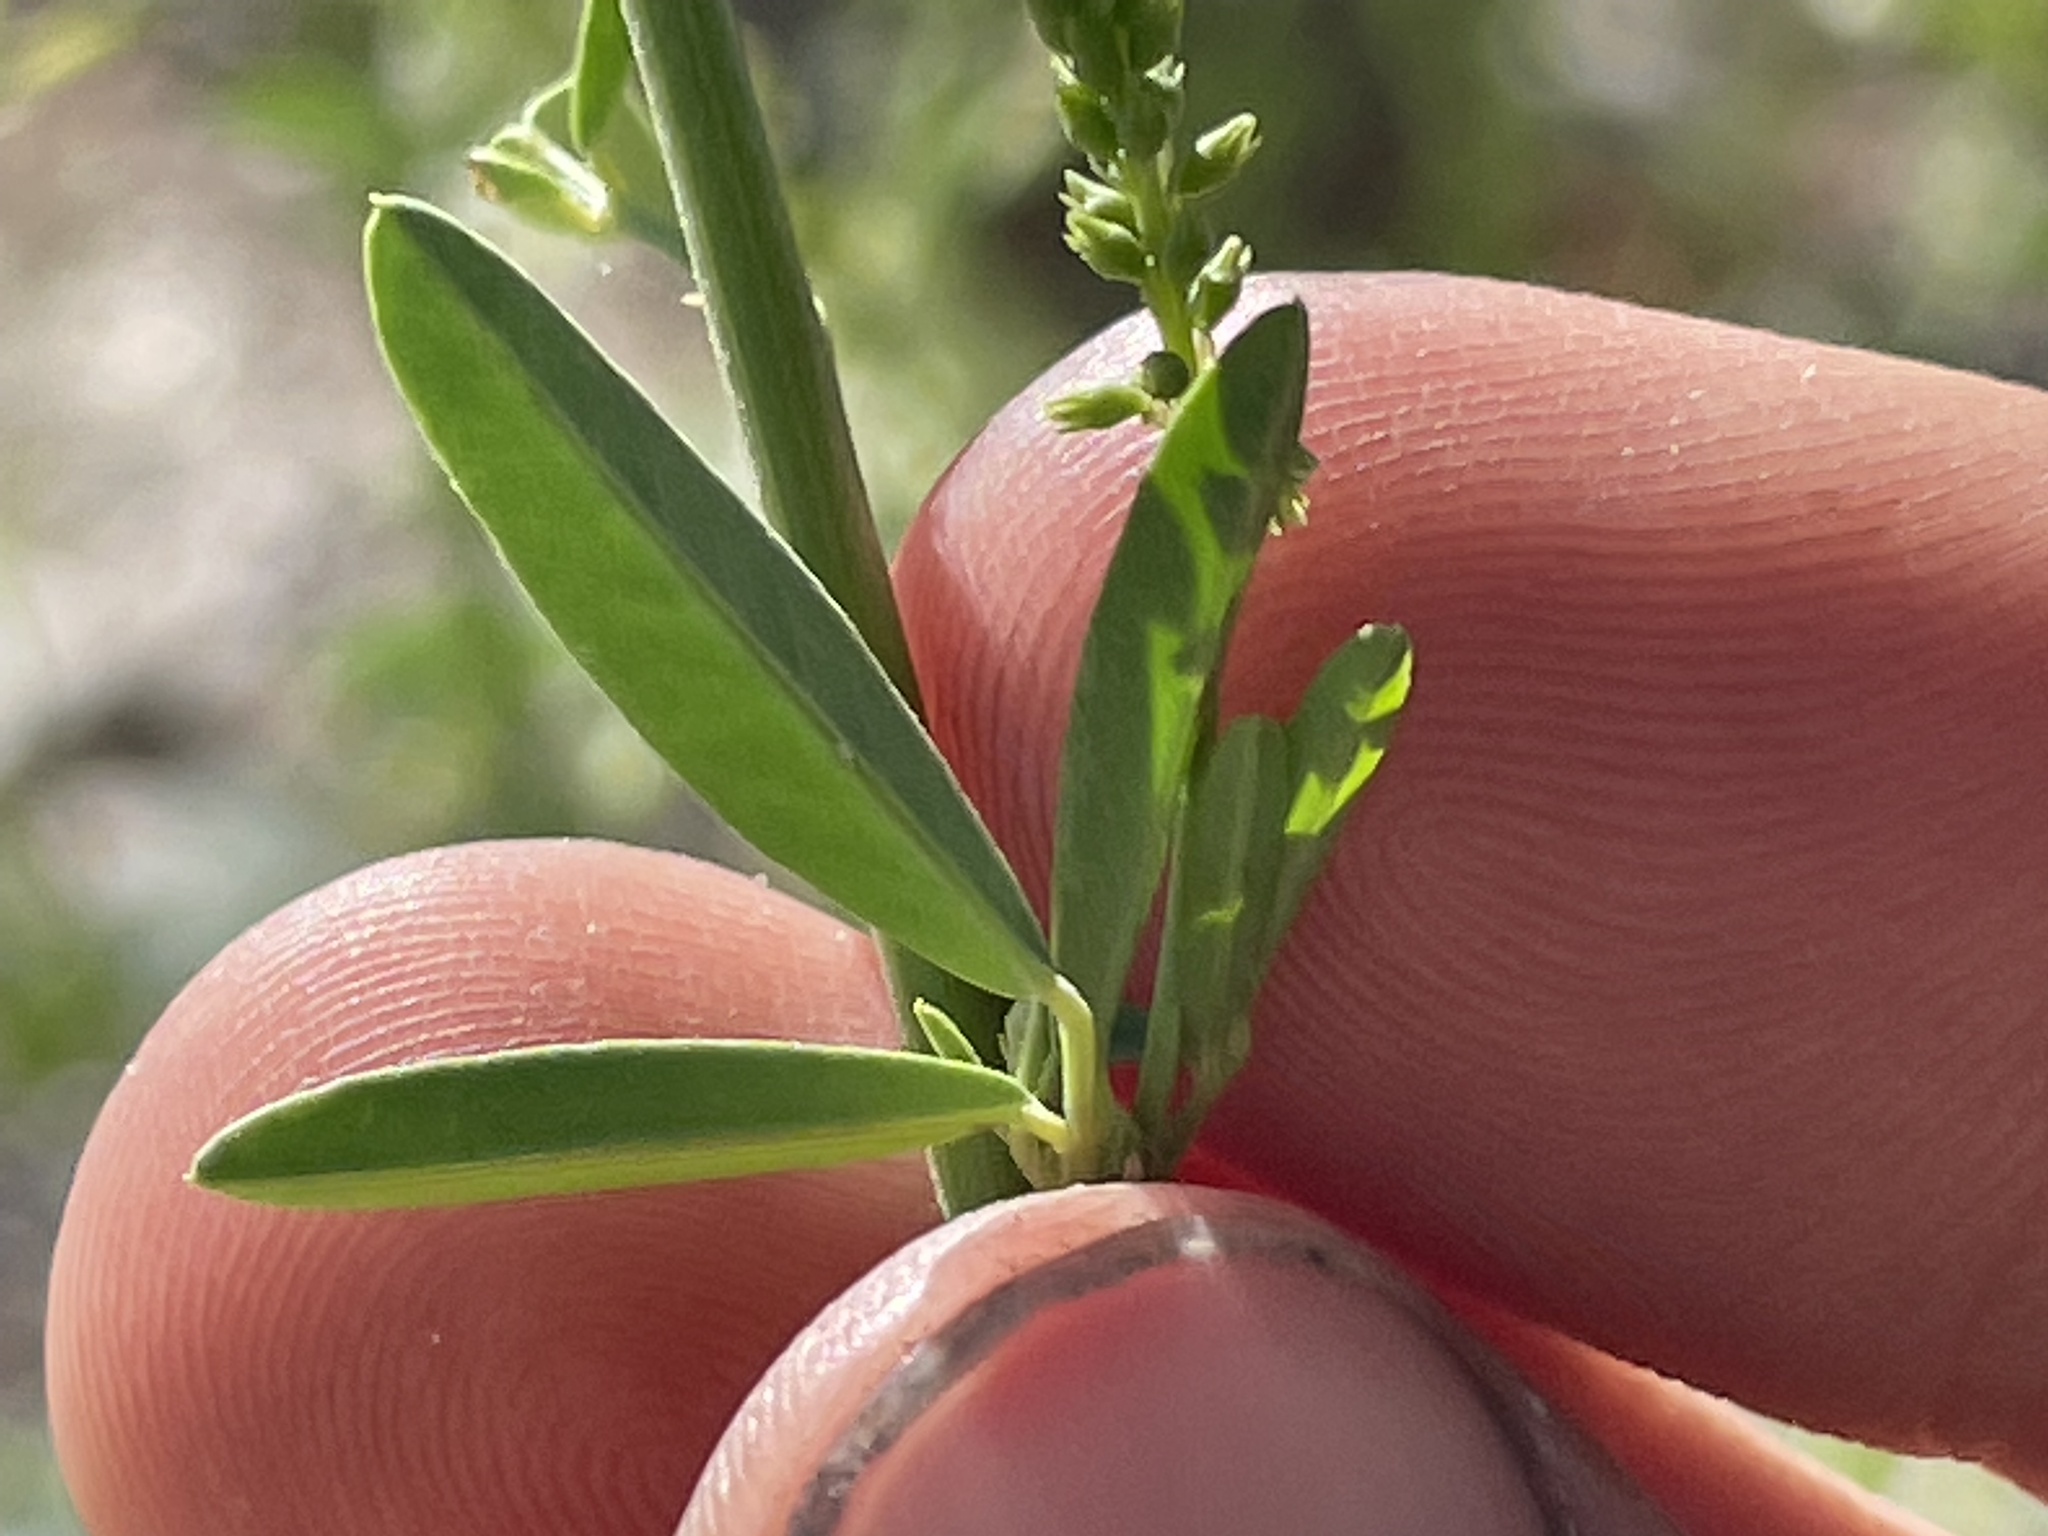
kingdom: Plantae
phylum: Tracheophyta
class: Magnoliopsida
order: Fabales
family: Fabaceae
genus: Melilotus
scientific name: Melilotus albus
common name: White melilot
